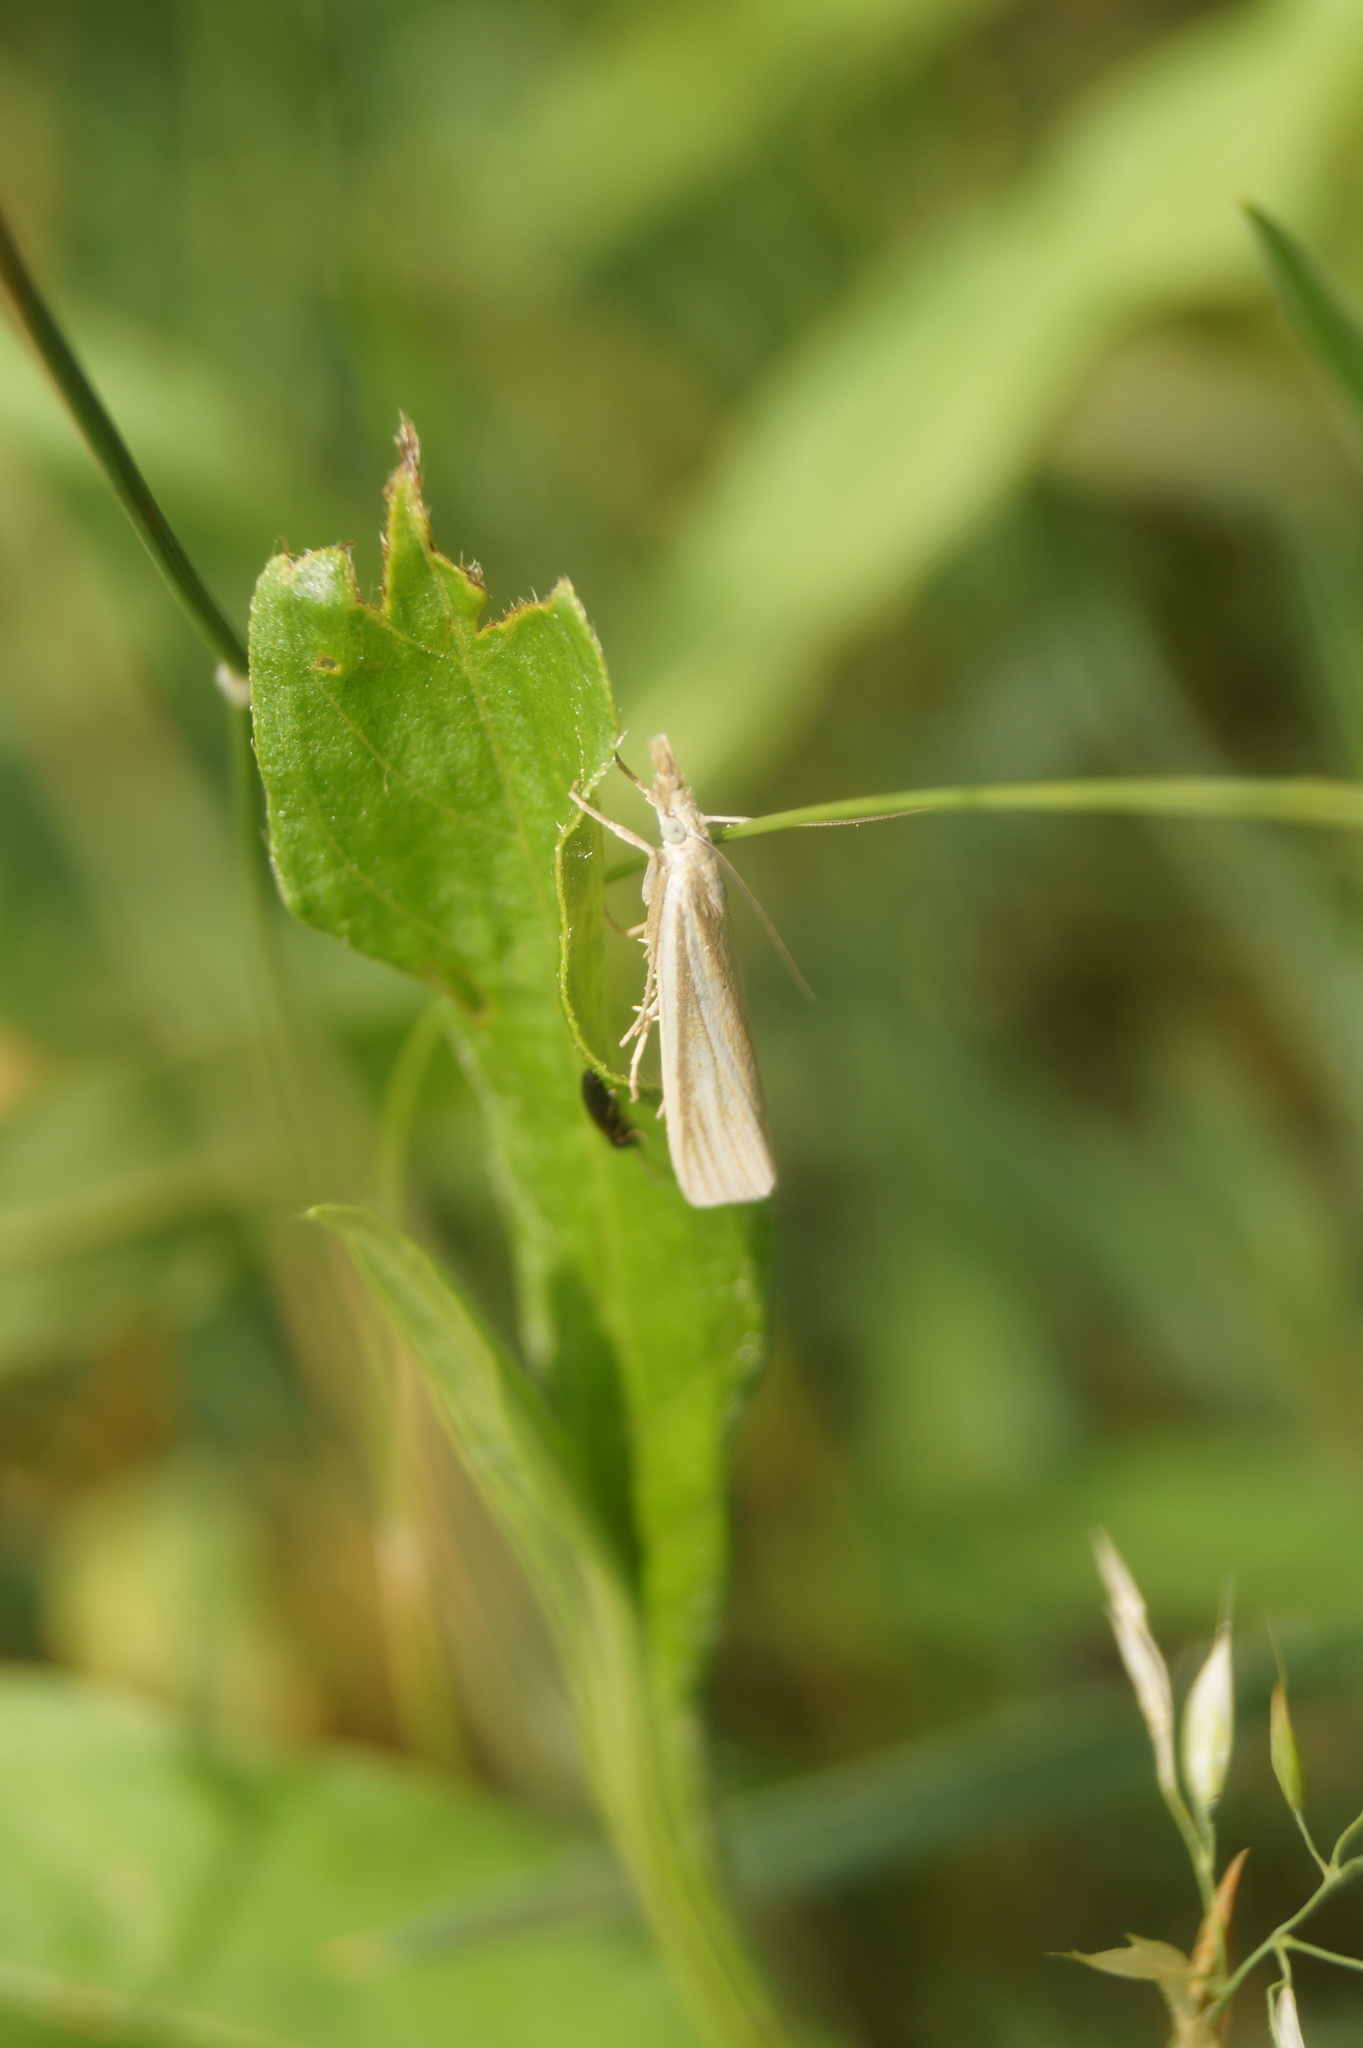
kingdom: Animalia
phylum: Arthropoda
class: Insecta
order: Lepidoptera
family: Crambidae
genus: Crambus
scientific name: Crambus perlellus
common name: Yellow satin veneer
